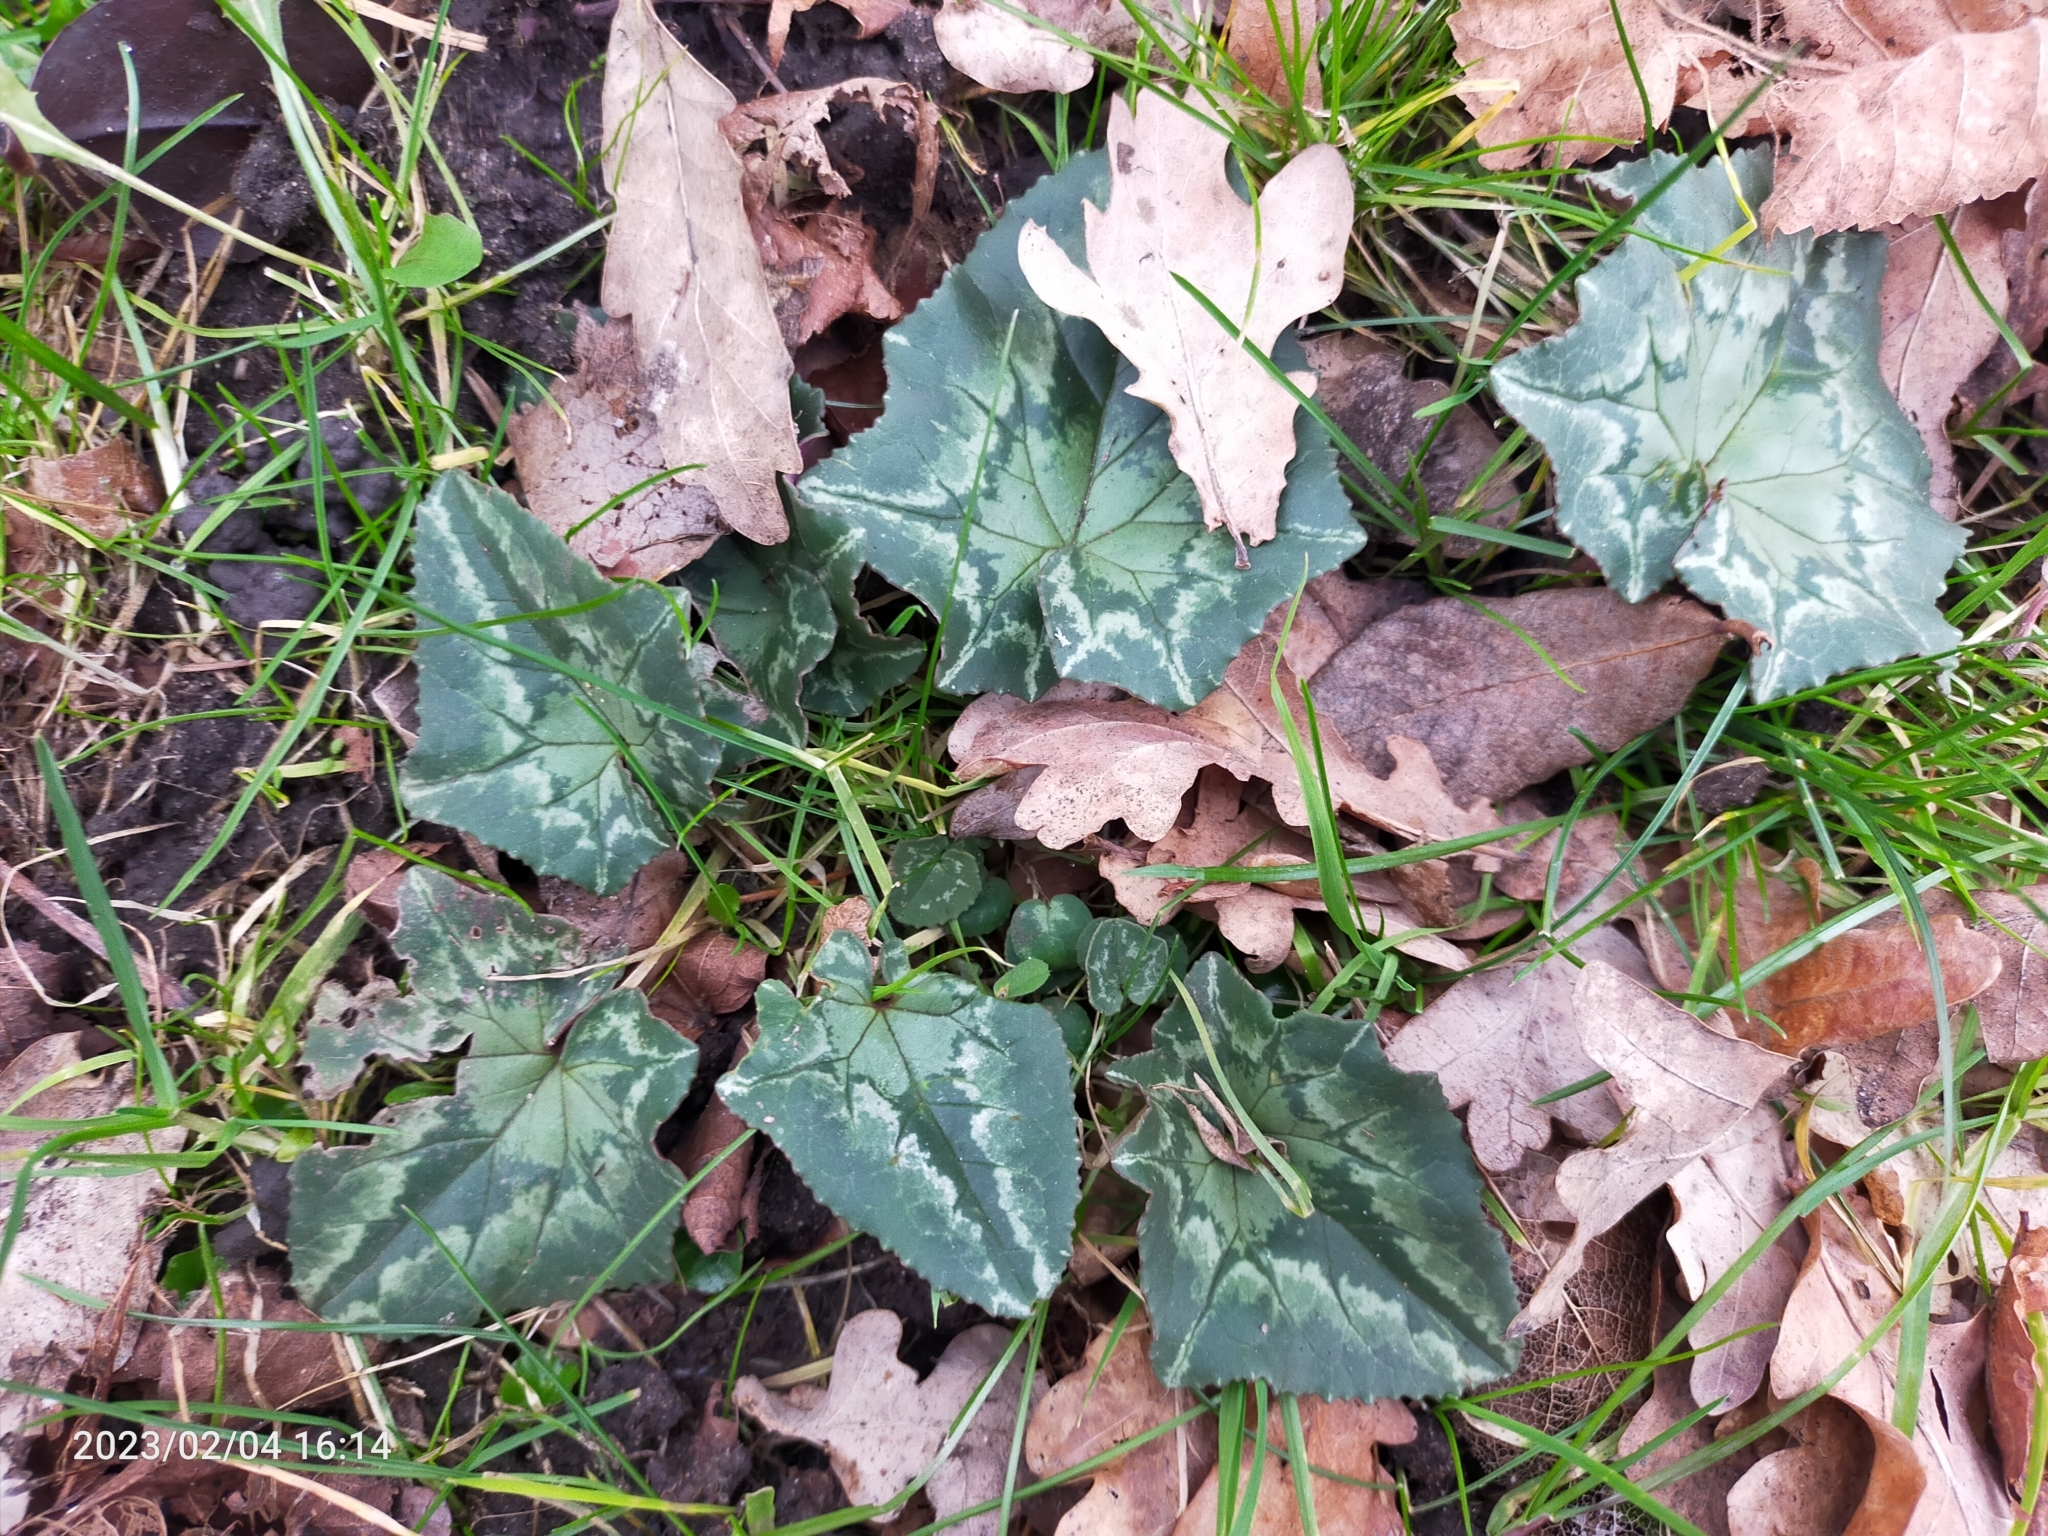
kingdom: Plantae
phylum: Tracheophyta
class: Magnoliopsida
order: Ericales
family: Primulaceae
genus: Cyclamen
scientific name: Cyclamen hederifolium
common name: Sowbread
